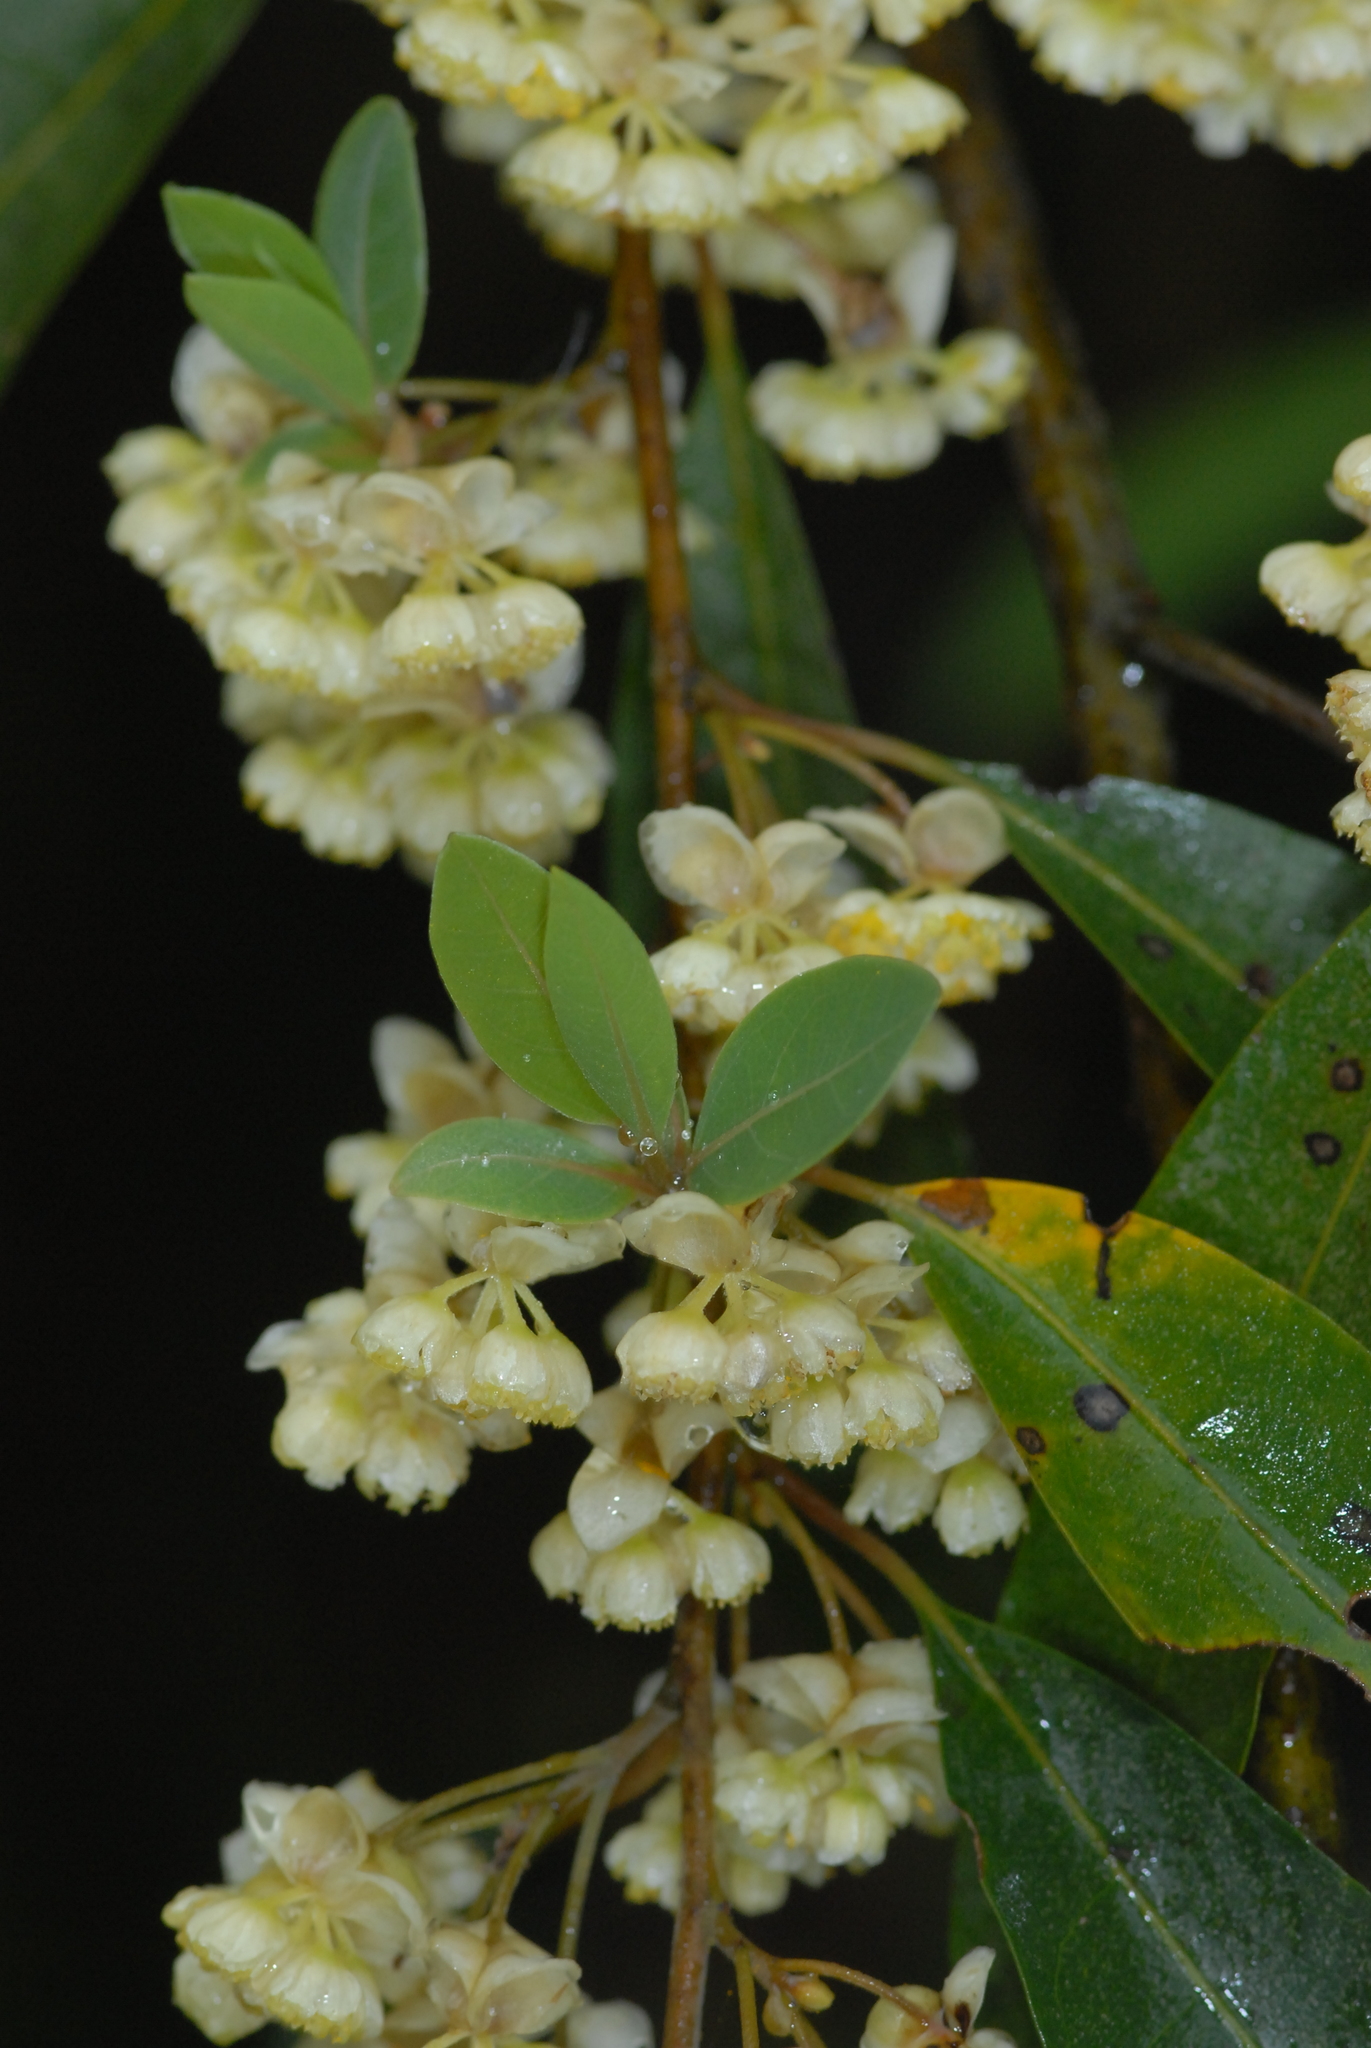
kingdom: Plantae
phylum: Tracheophyta
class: Magnoliopsida
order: Laurales
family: Lauraceae
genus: Litsea
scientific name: Litsea cubeba
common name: Mountain-pepper
